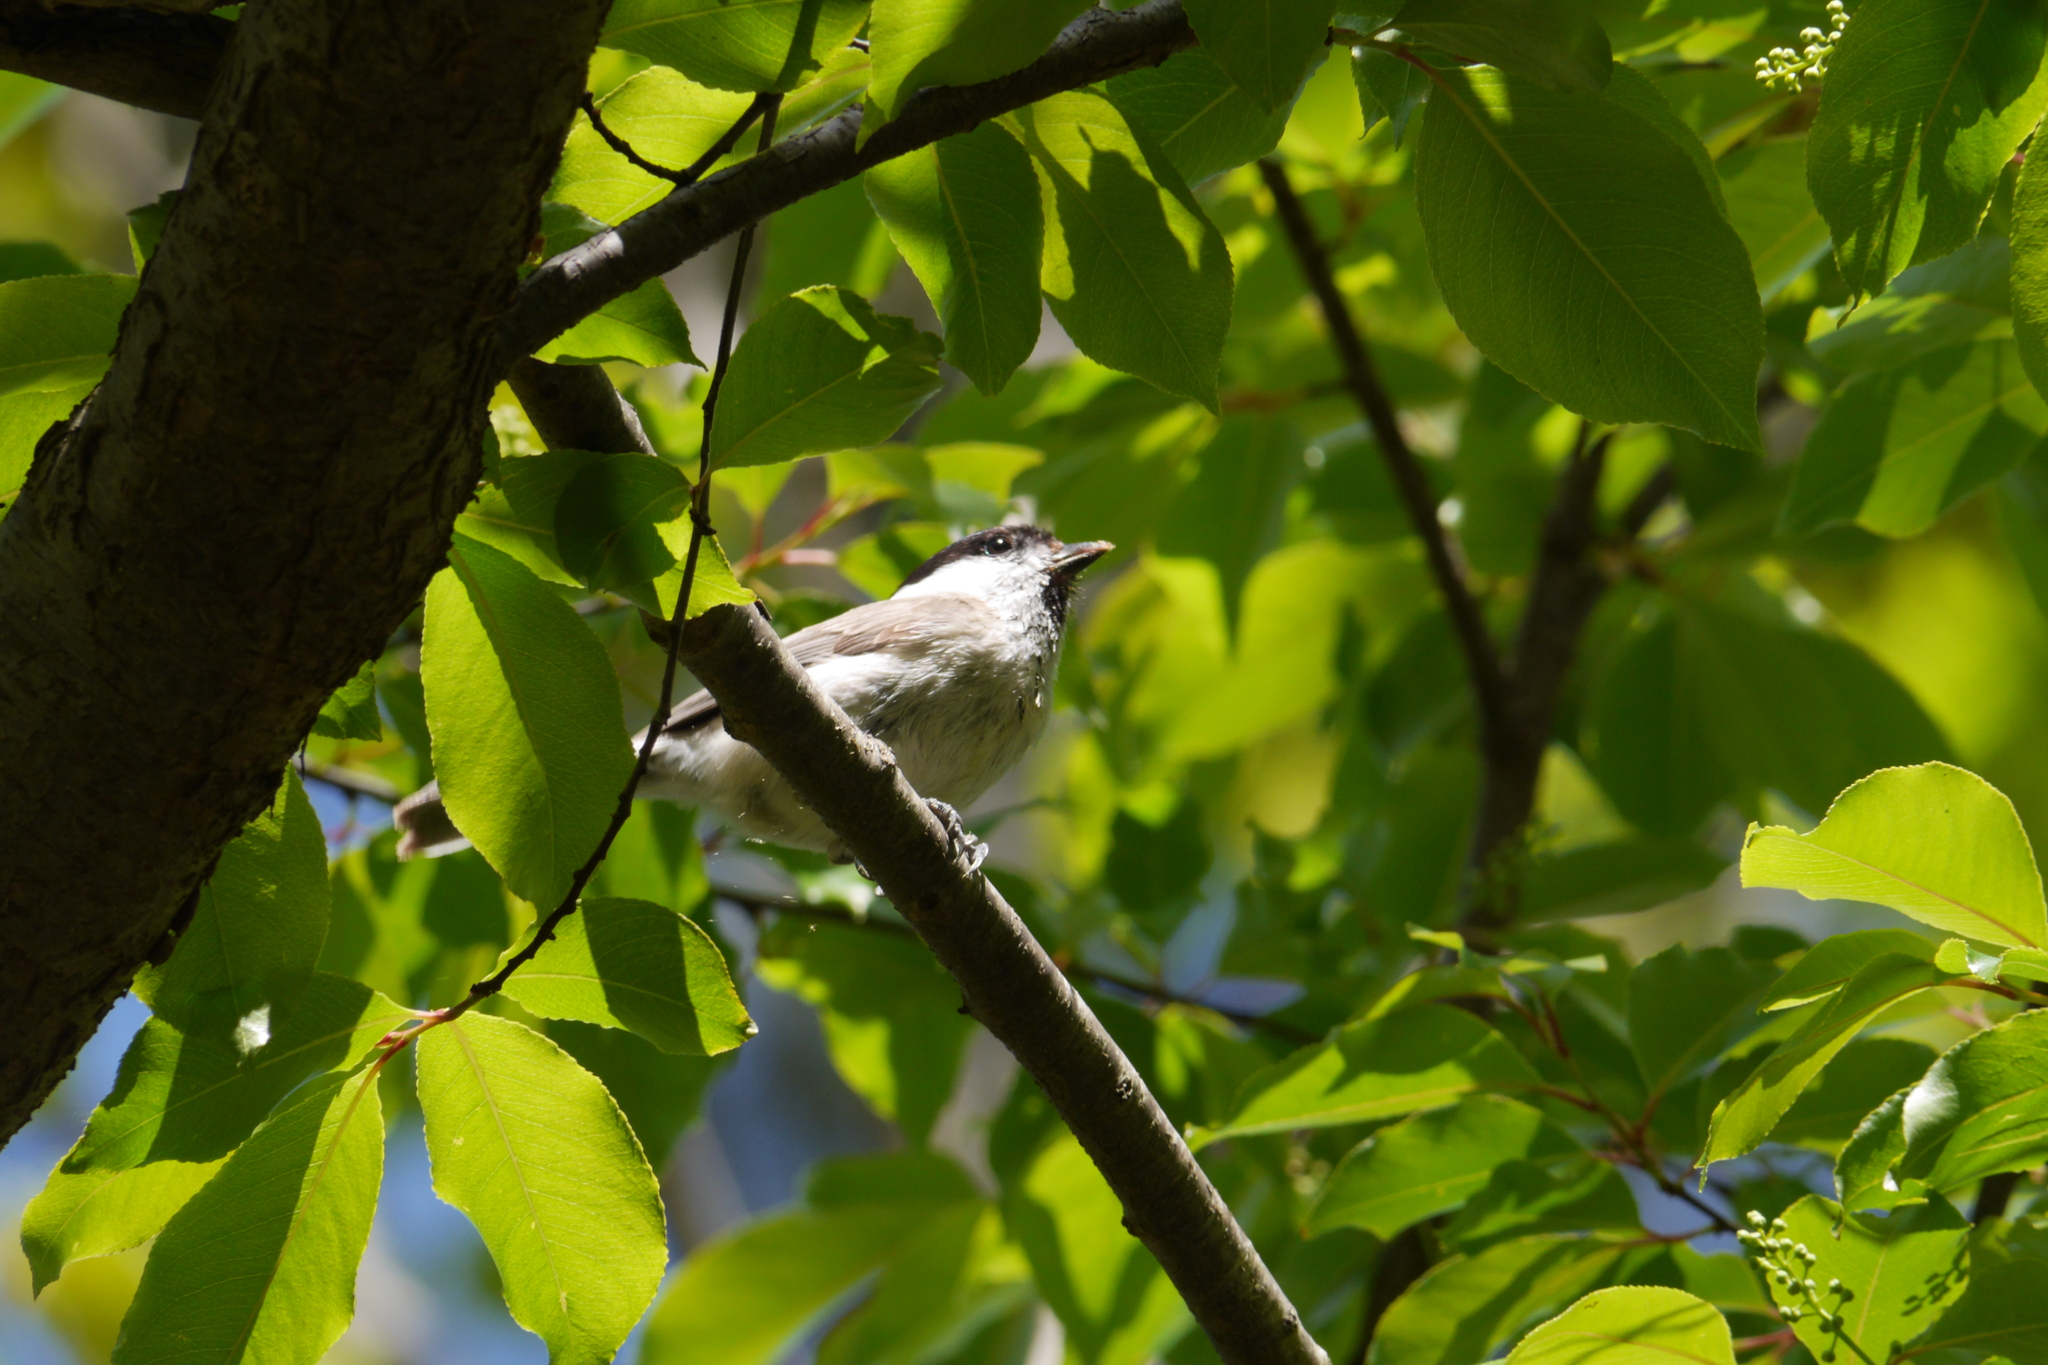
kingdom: Animalia
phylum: Chordata
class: Aves
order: Passeriformes
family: Paridae
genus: Poecile
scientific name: Poecile palustris
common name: Marsh tit
